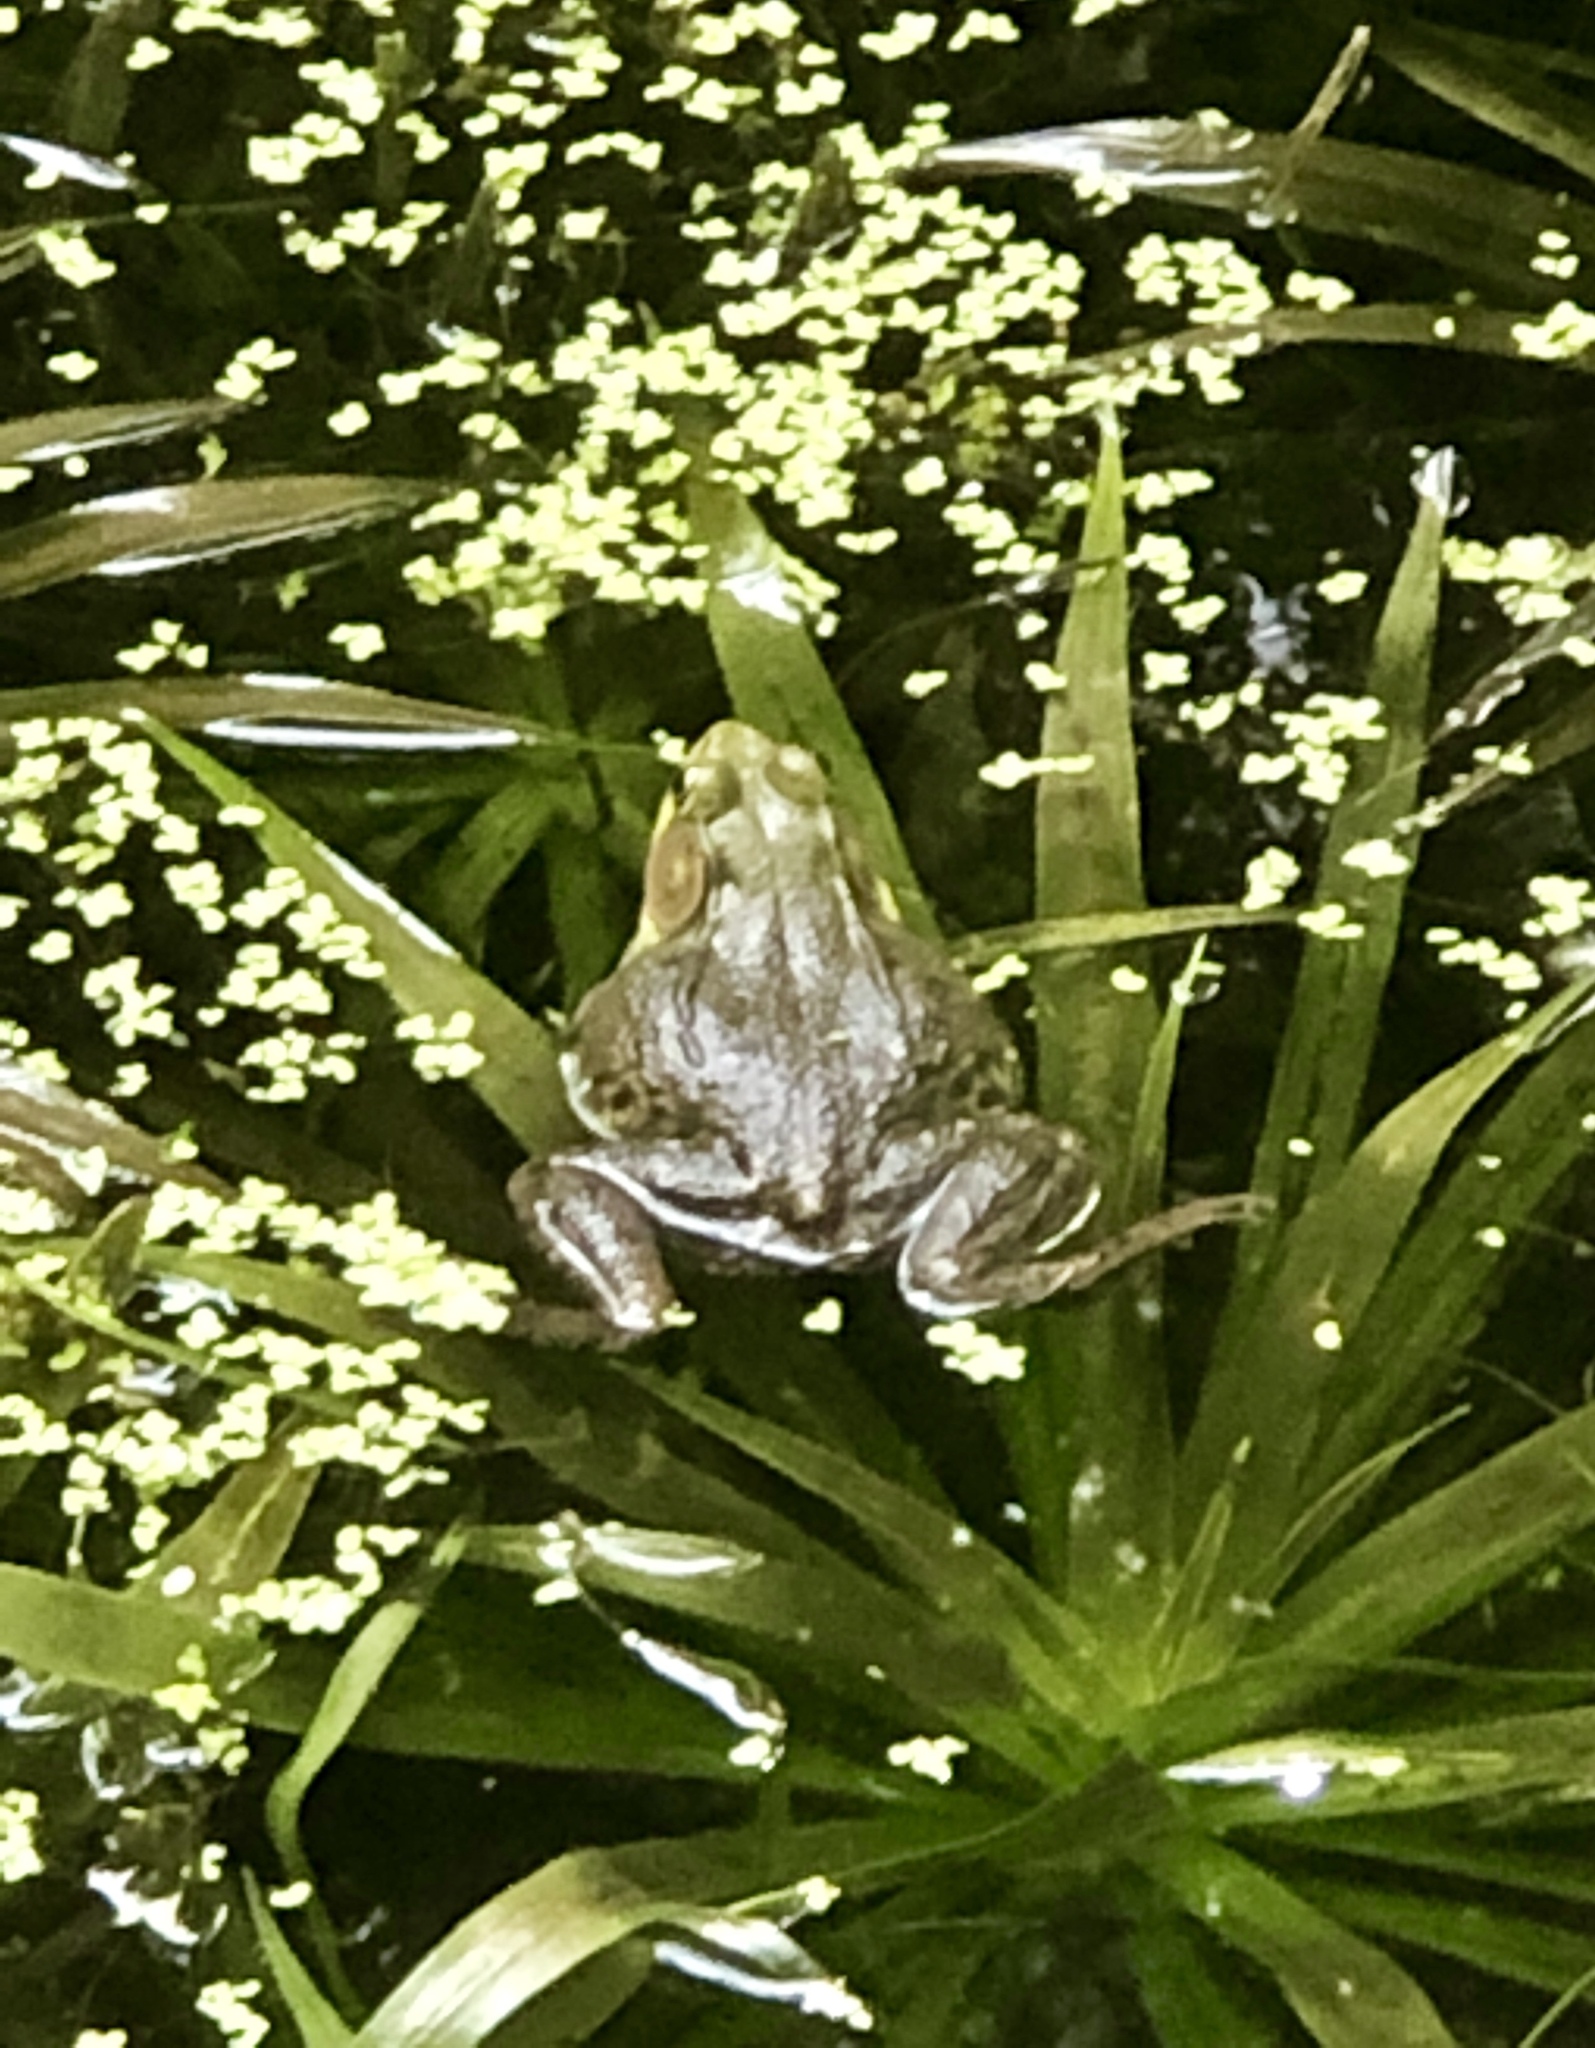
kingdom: Animalia
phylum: Chordata
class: Amphibia
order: Anura
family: Ranidae
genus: Lithobates
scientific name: Lithobates clamitans
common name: Green frog
